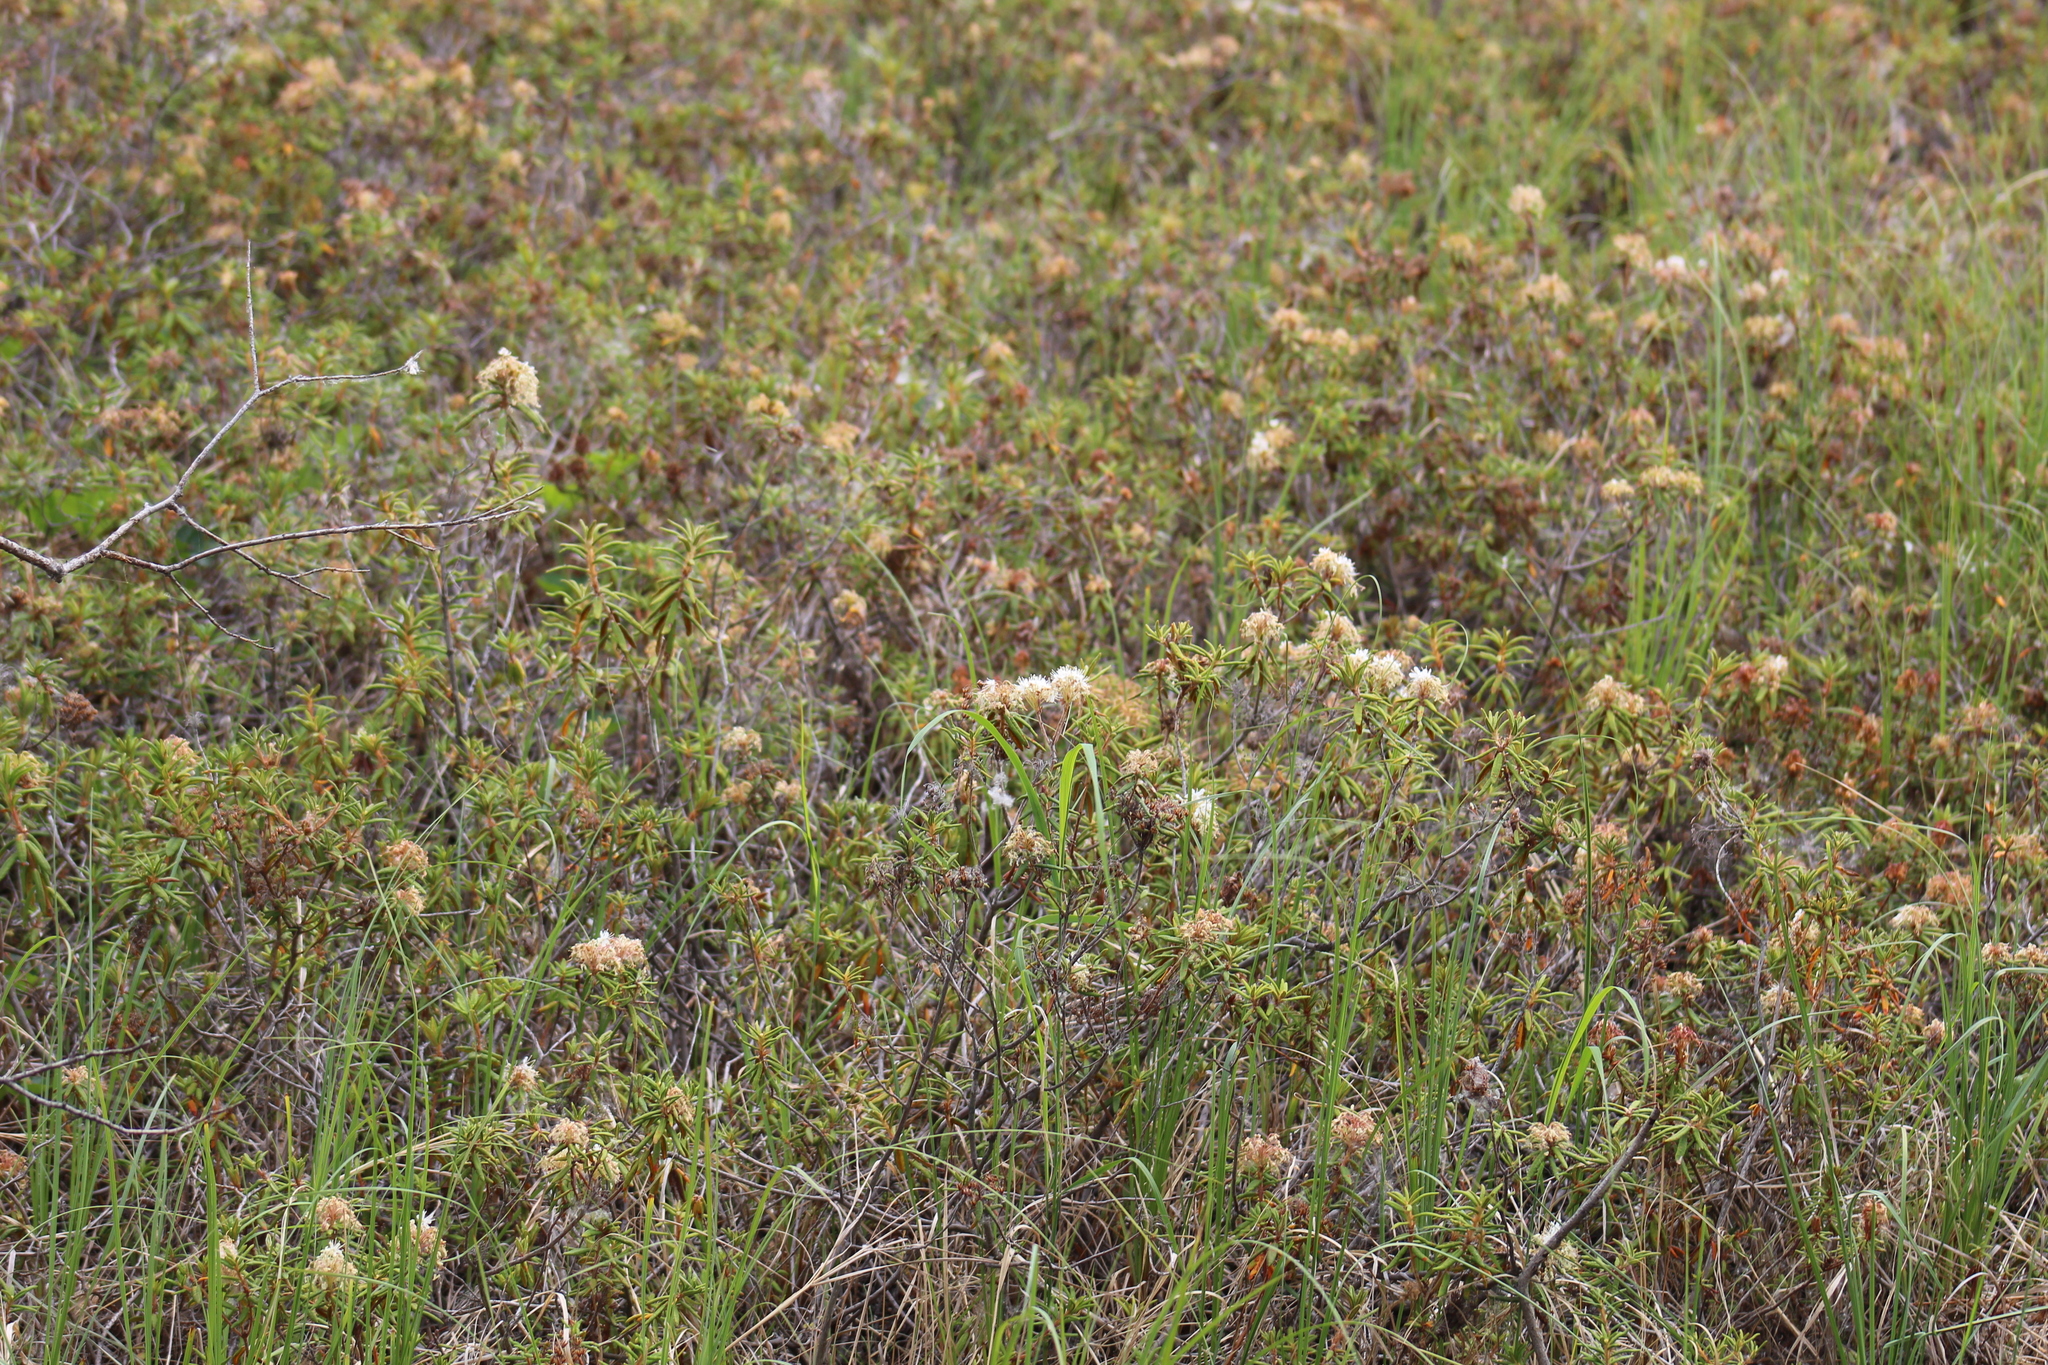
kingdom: Plantae
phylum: Tracheophyta
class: Magnoliopsida
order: Ericales
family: Ericaceae
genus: Rhododendron
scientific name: Rhododendron tomentosum
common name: Marsh labrador tea
